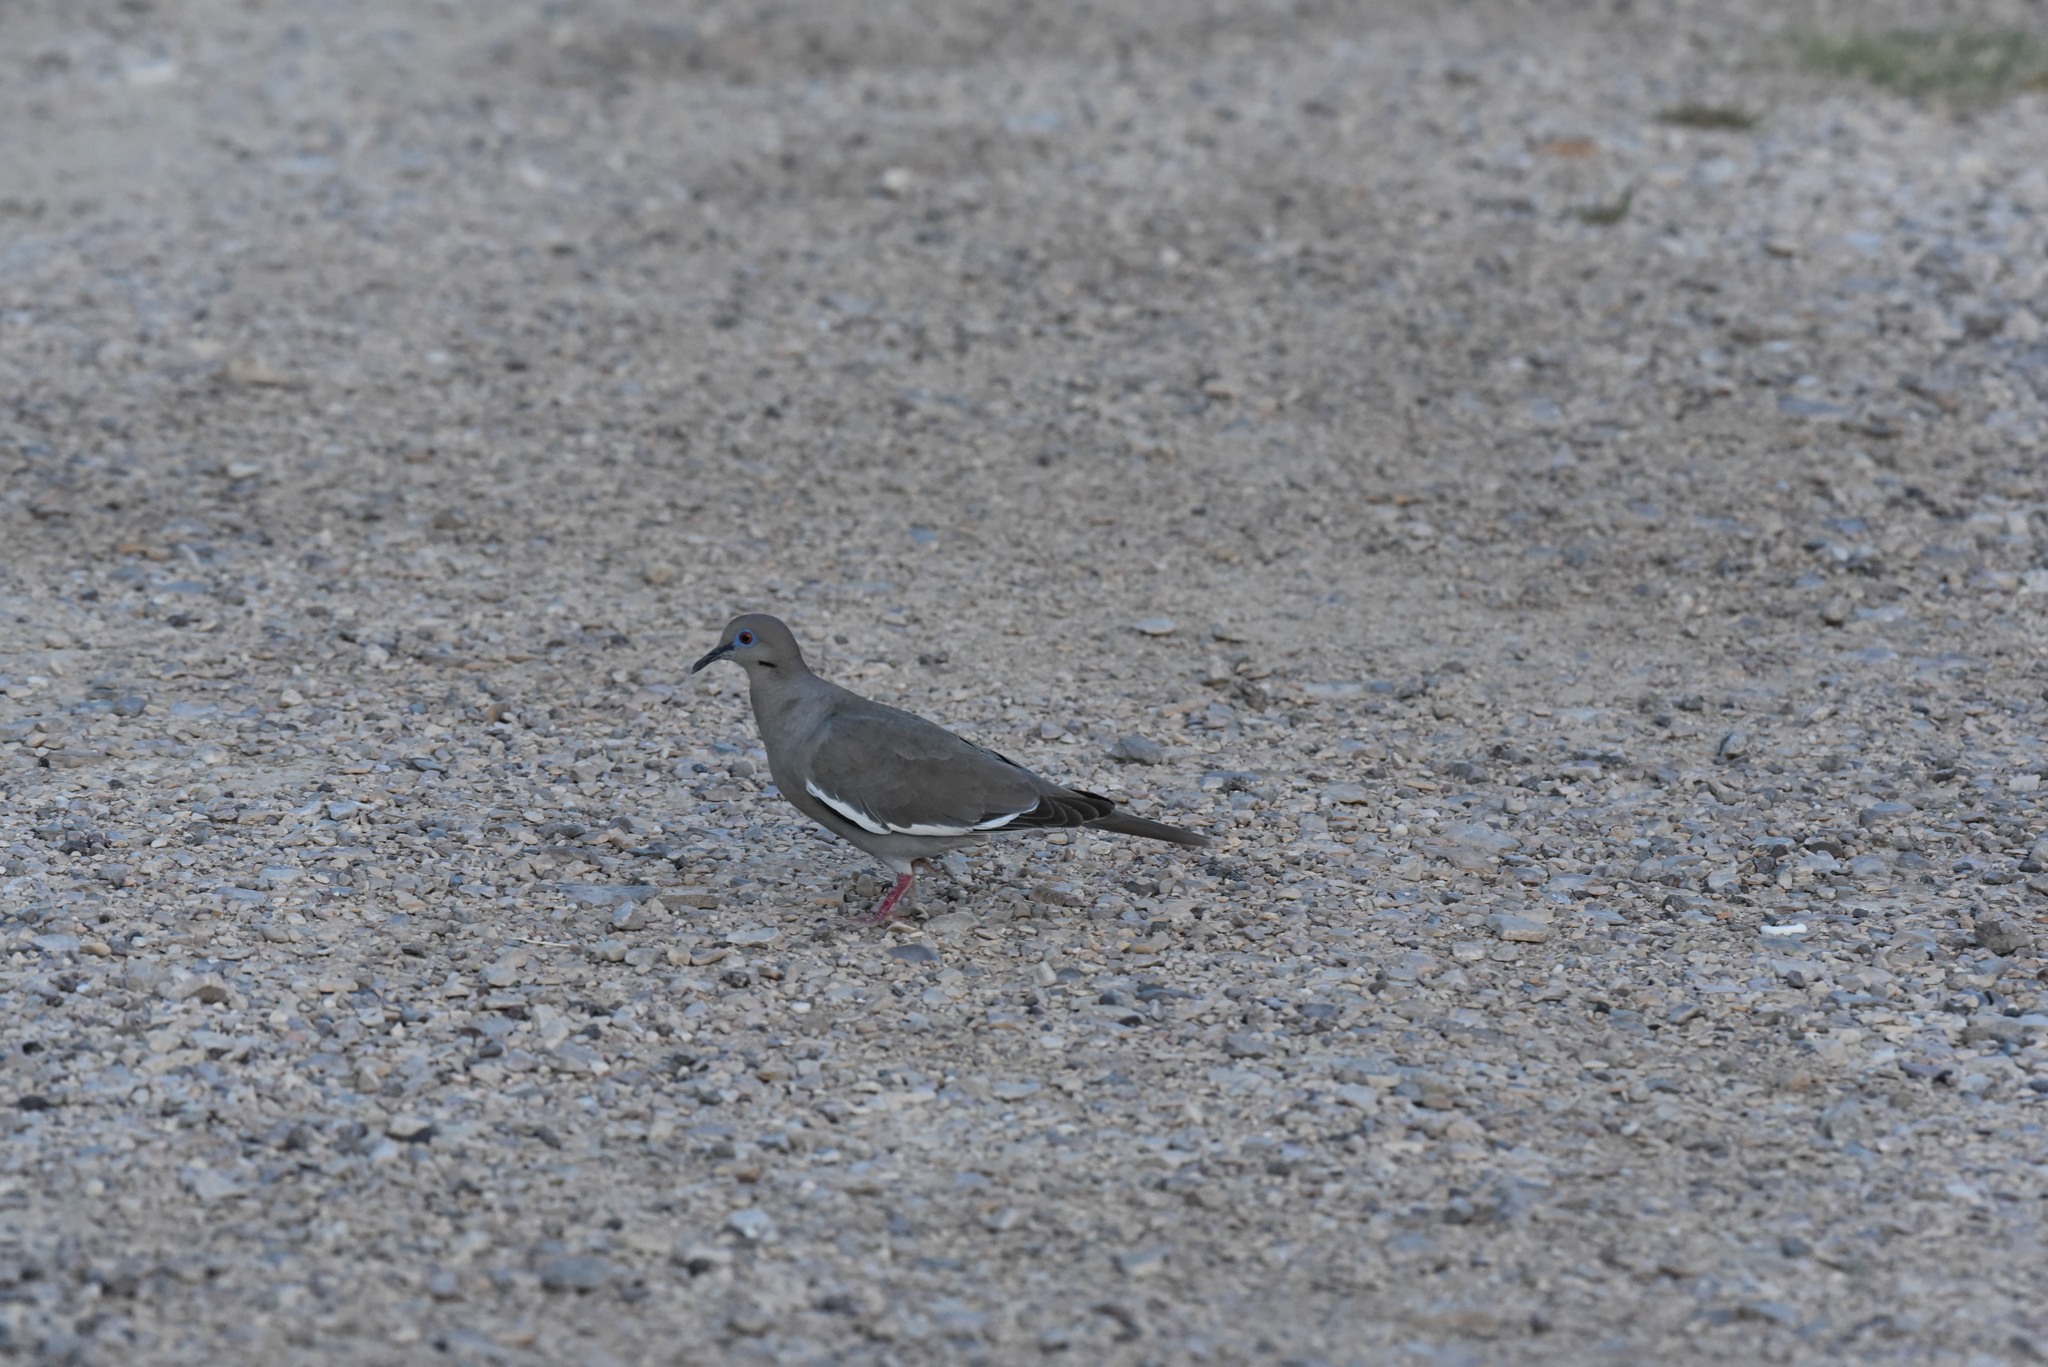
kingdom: Animalia
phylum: Chordata
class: Aves
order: Columbiformes
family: Columbidae
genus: Zenaida
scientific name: Zenaida asiatica
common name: White-winged dove
